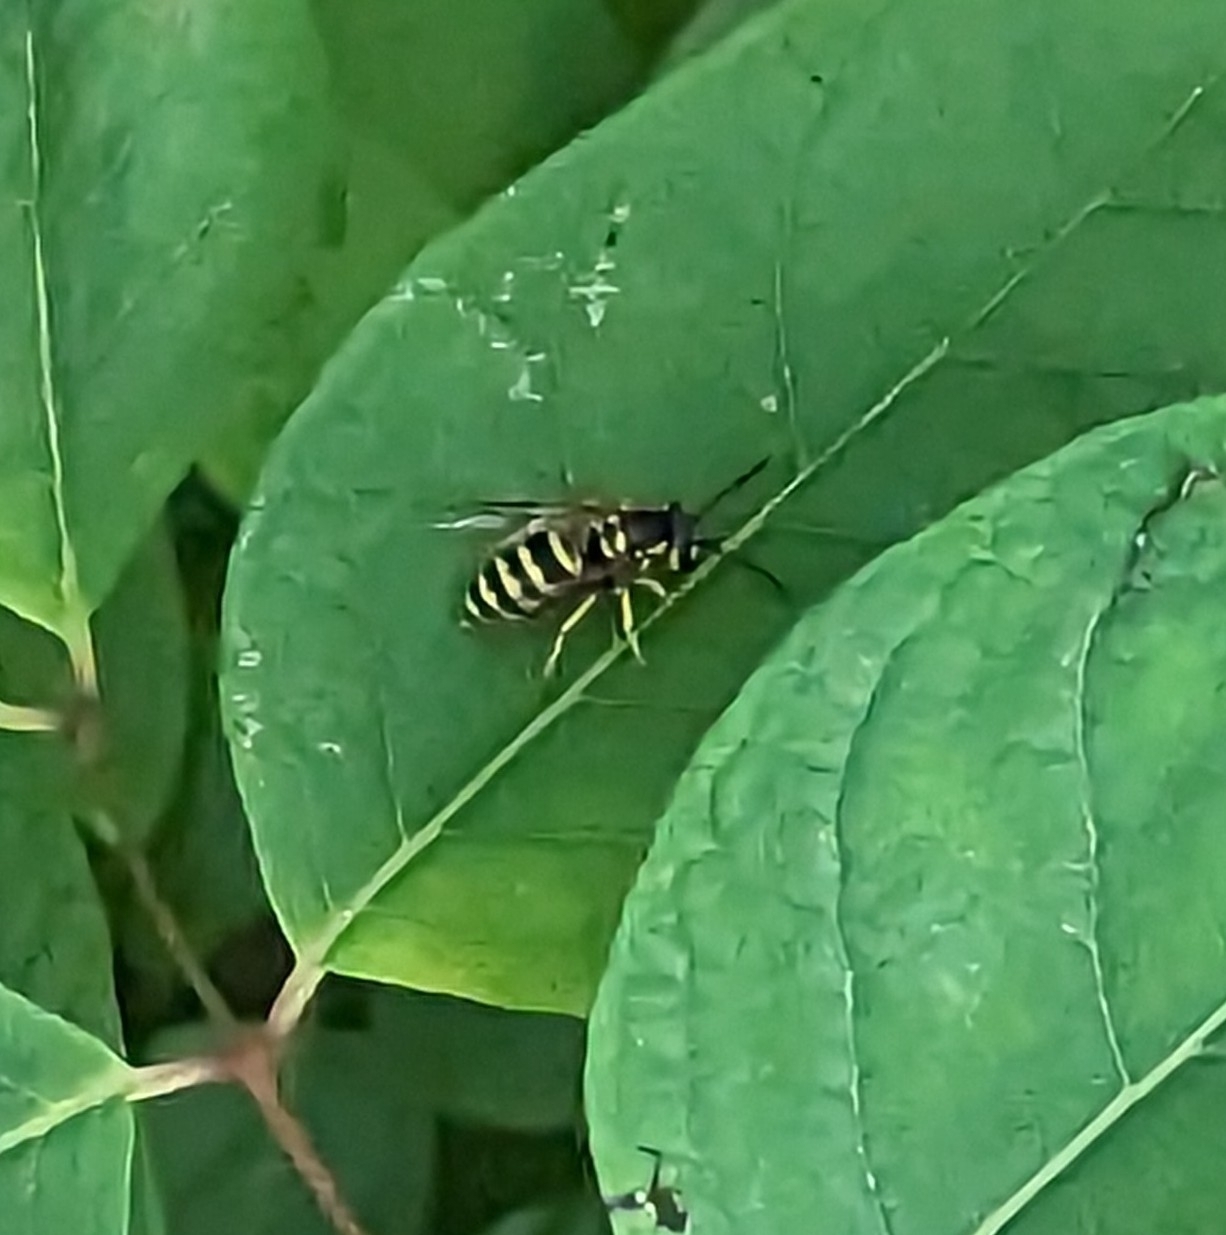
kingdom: Animalia
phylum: Arthropoda
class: Insecta
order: Hymenoptera
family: Vespidae
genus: Vespula
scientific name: Vespula maculifrons
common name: Eastern yellowjacket
